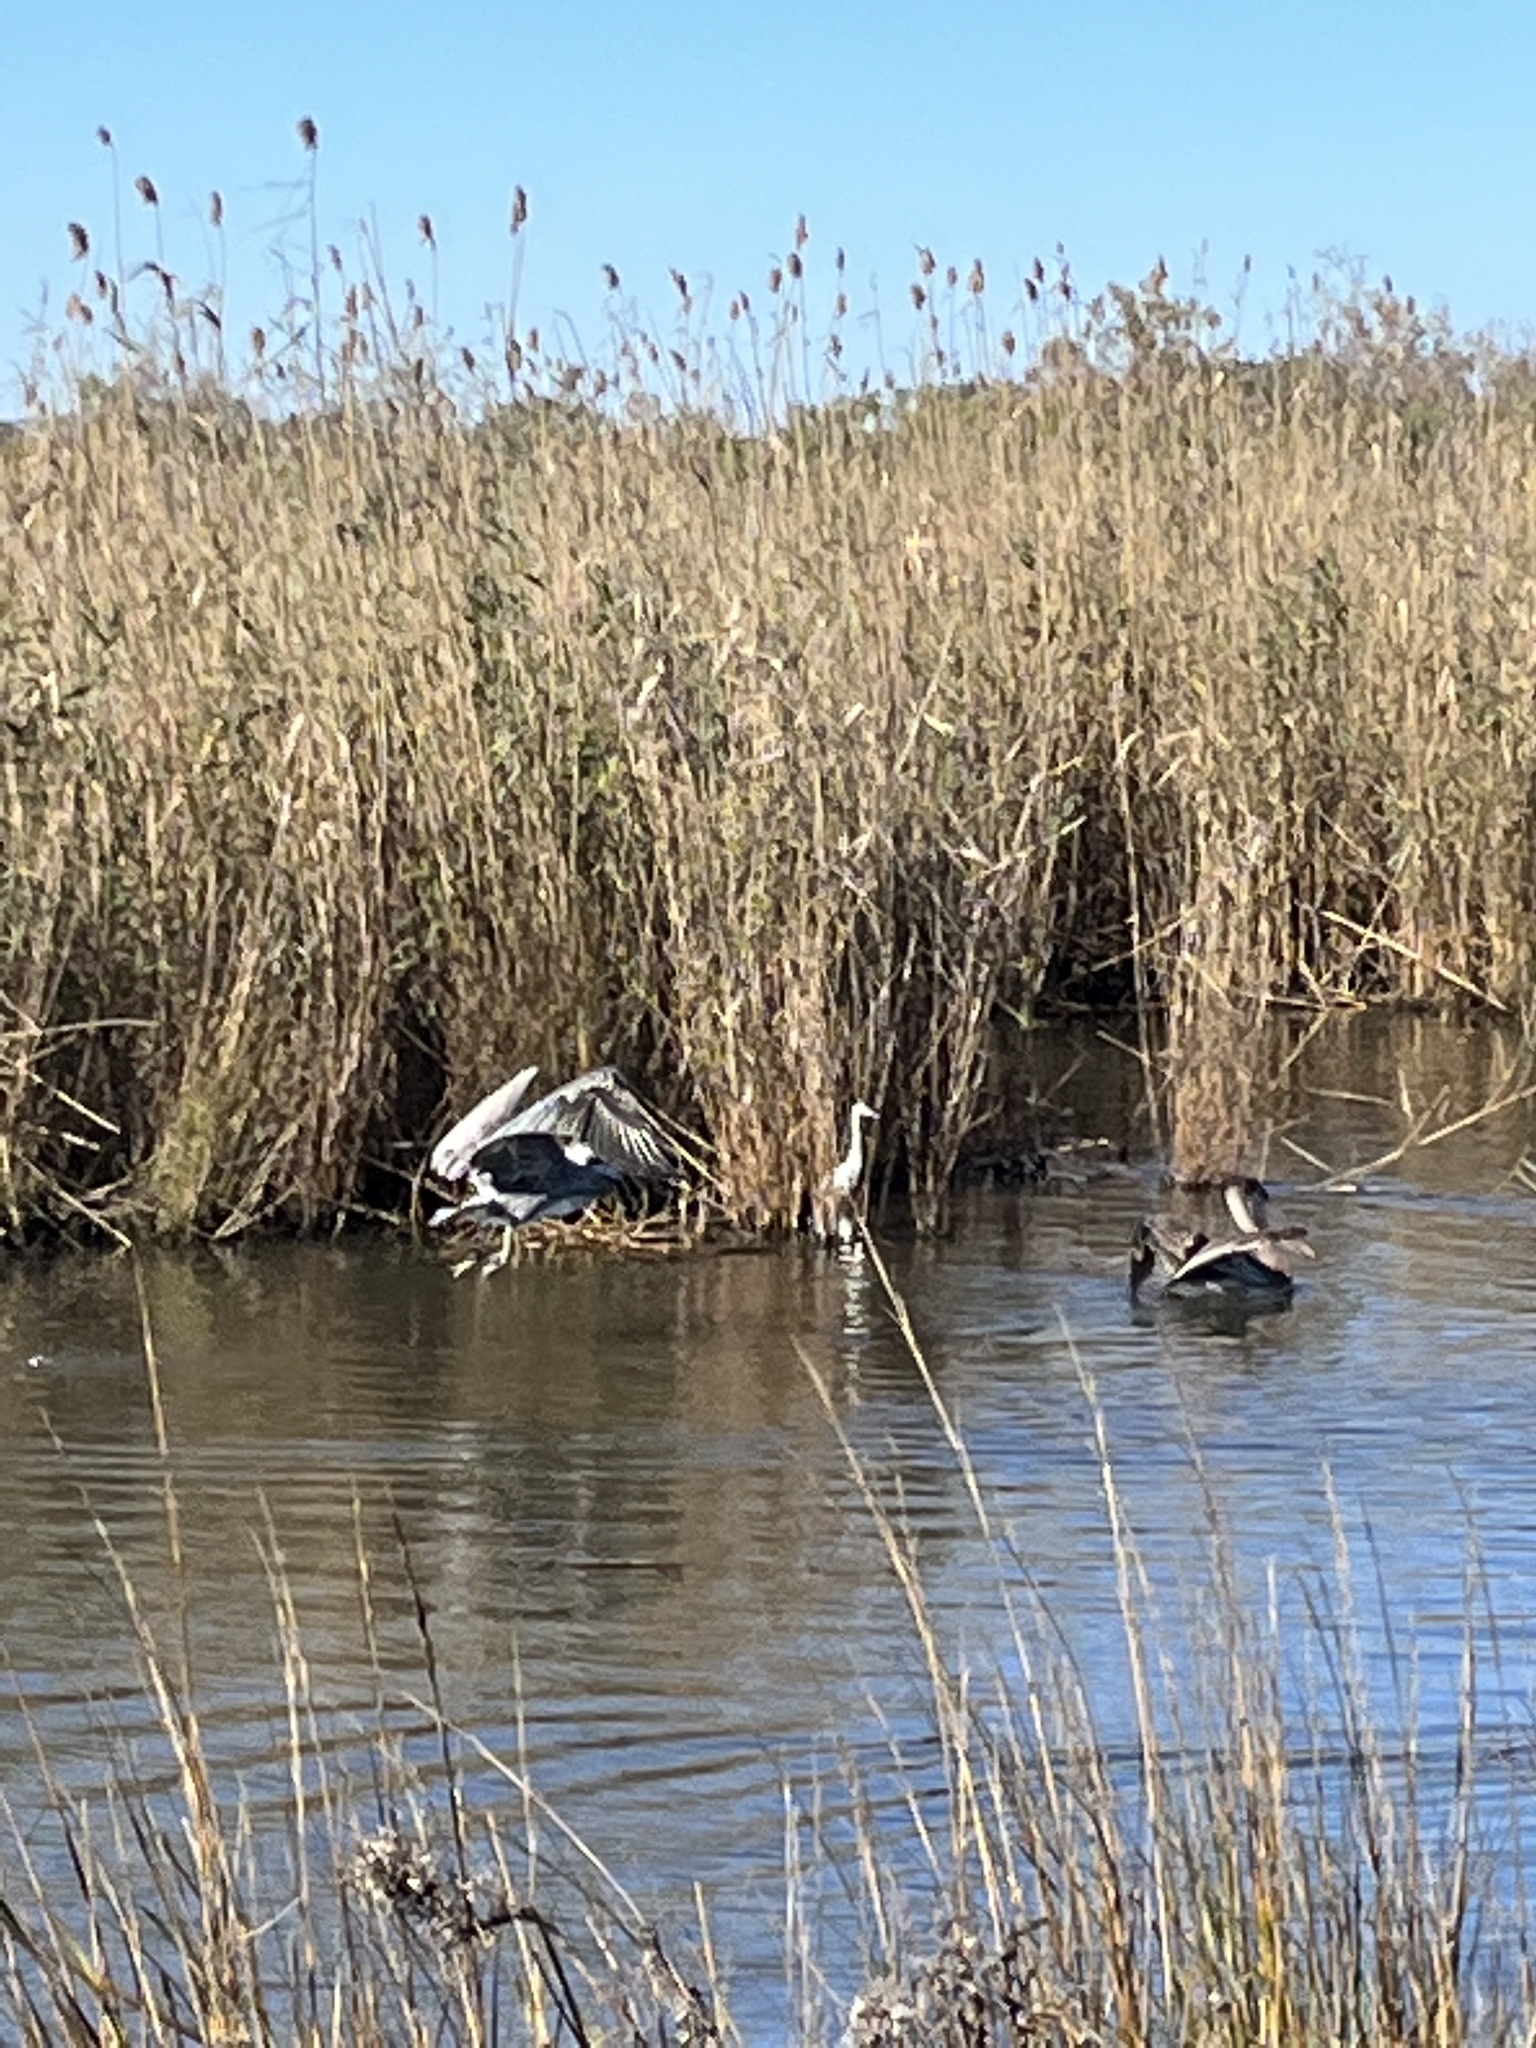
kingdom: Animalia
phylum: Chordata
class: Aves
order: Pelecaniformes
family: Pelecanidae
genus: Pelecanus
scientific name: Pelecanus occidentalis
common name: Brown pelican
